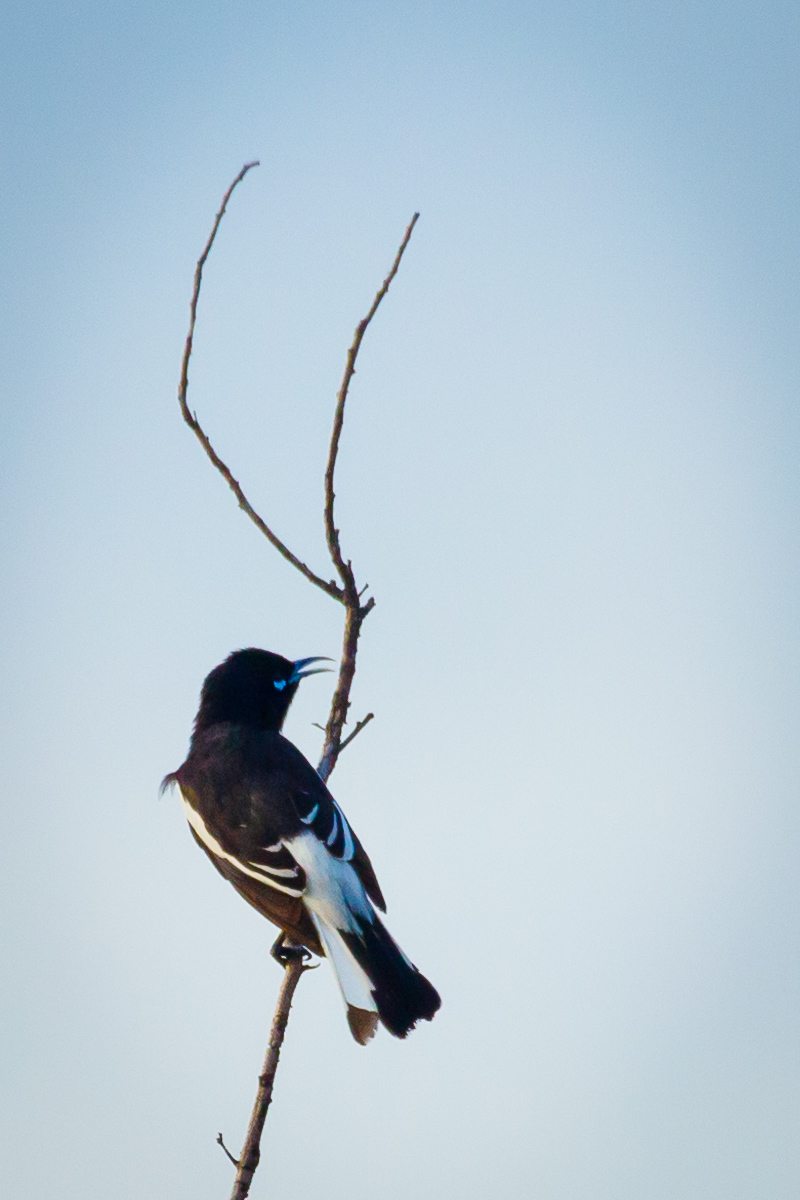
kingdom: Animalia
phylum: Chordata
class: Aves
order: Passeriformes
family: Meliphagidae
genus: Certhionyx
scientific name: Certhionyx variegatus
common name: Pied honeyeater
